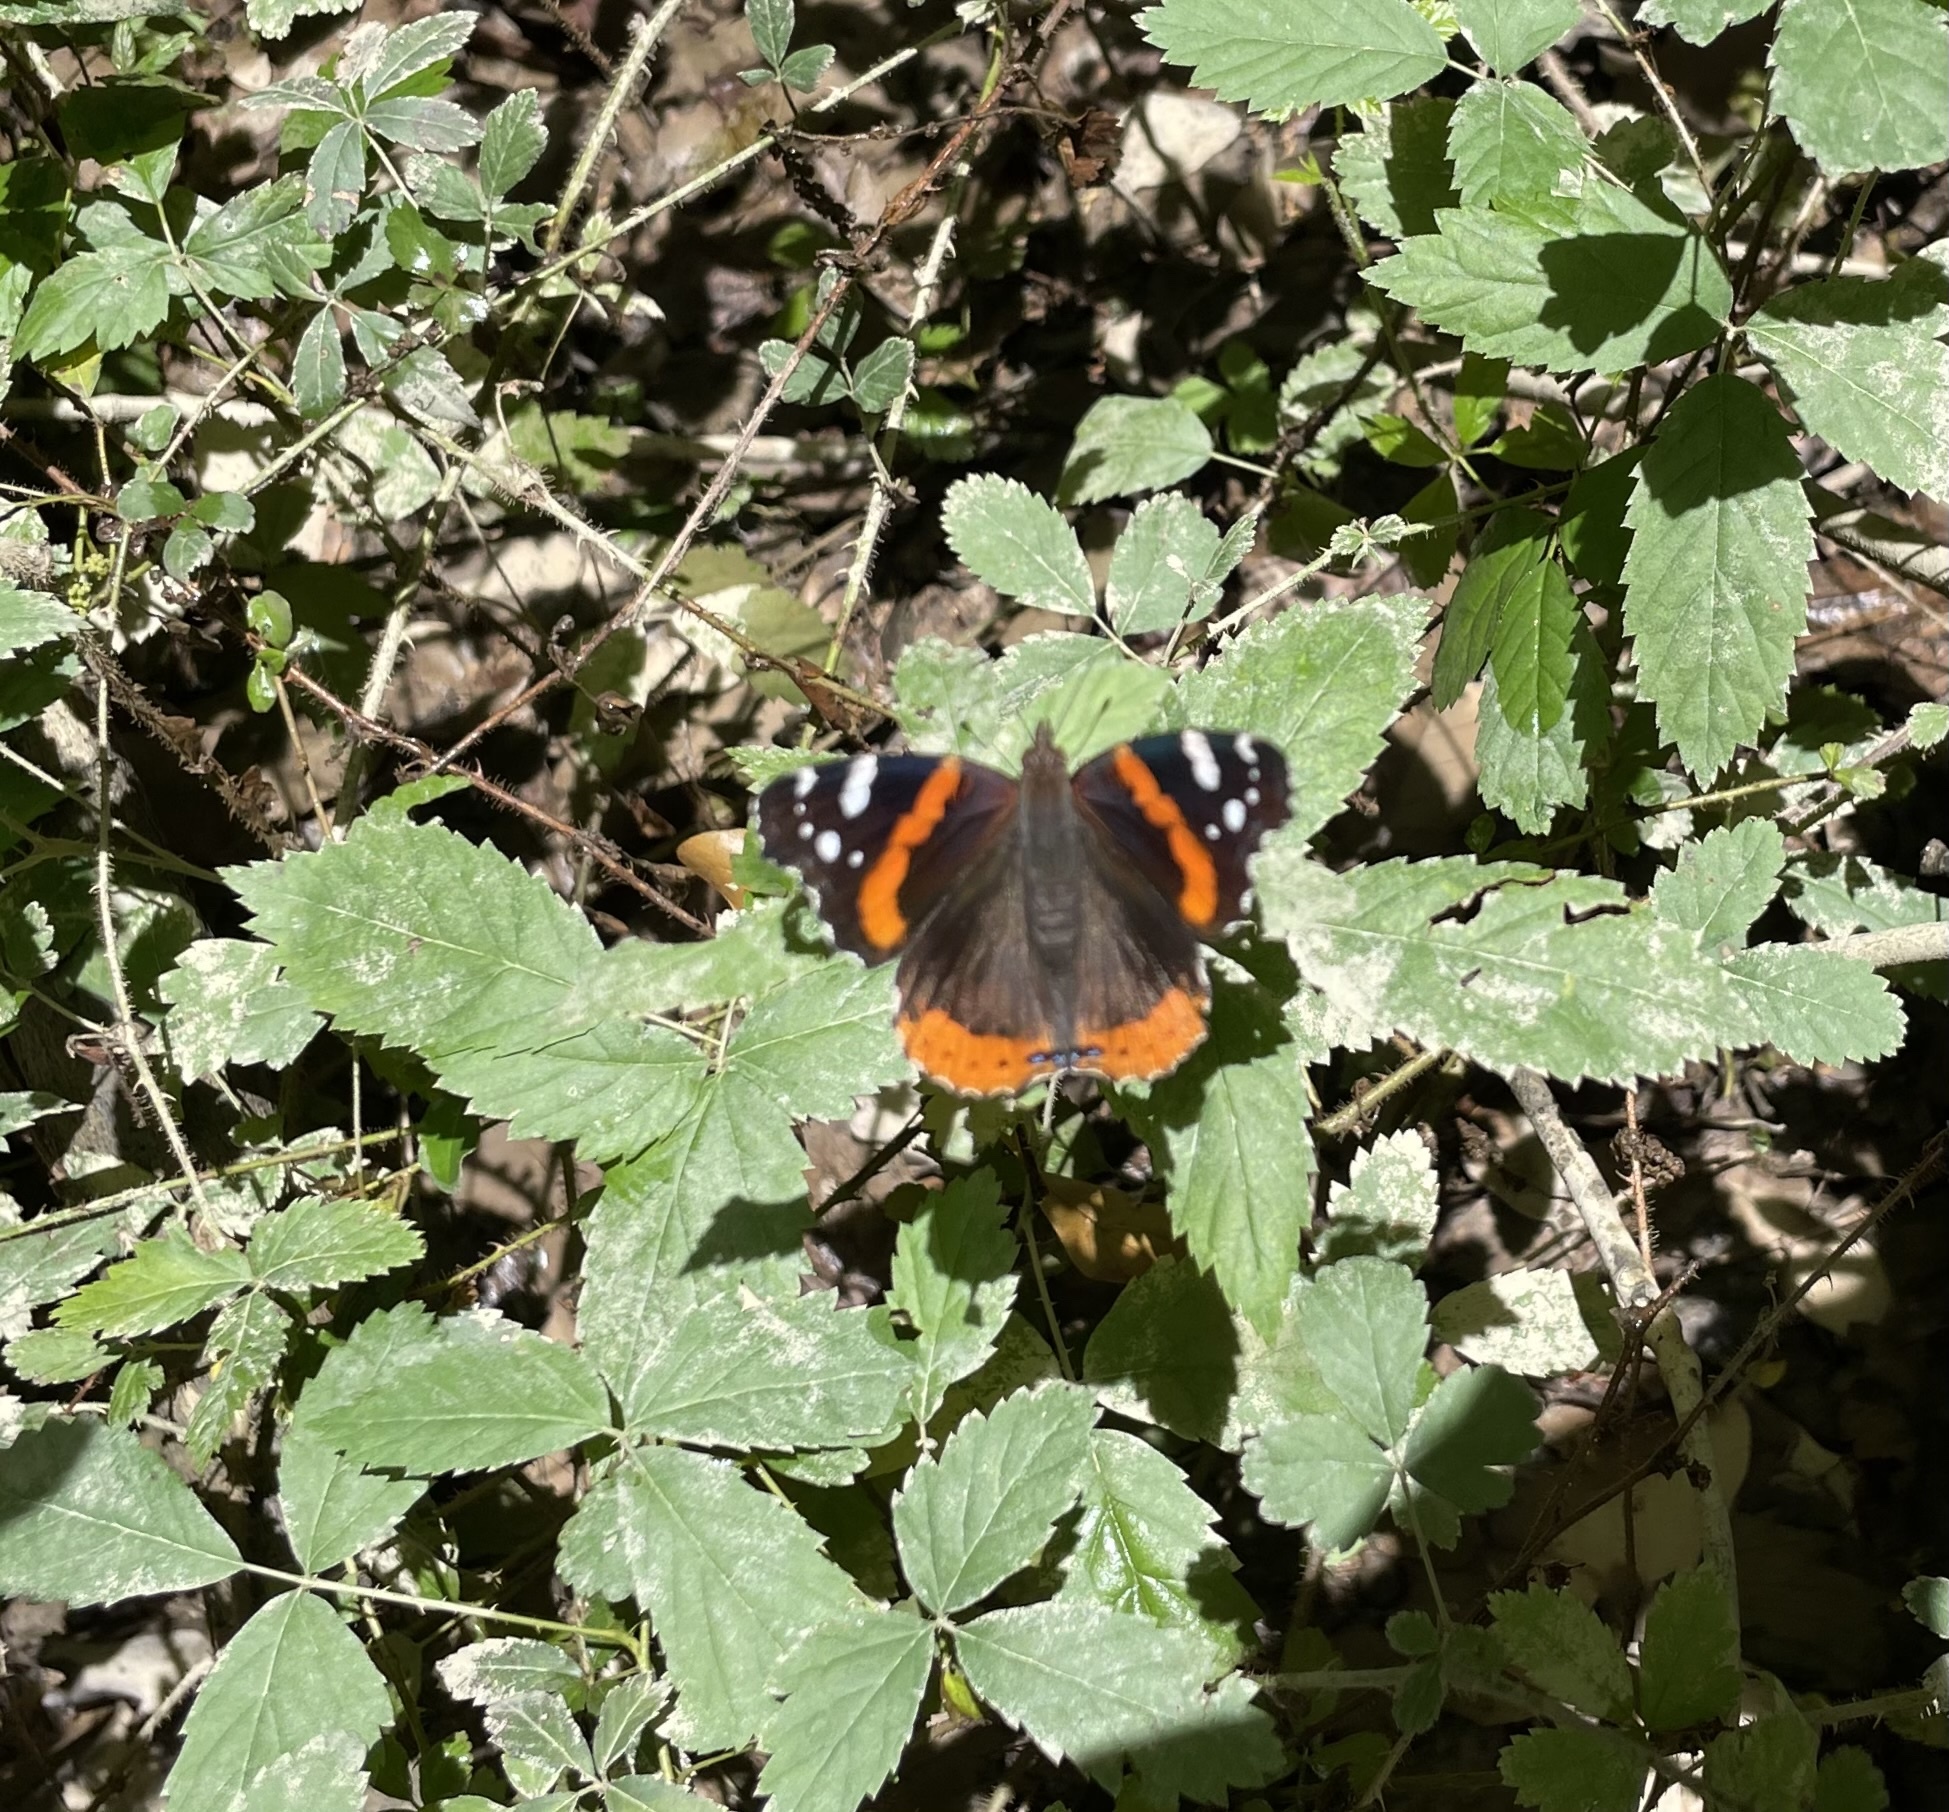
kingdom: Animalia
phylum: Arthropoda
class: Insecta
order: Lepidoptera
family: Nymphalidae
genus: Vanessa
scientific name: Vanessa atalanta
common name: Red admiral
